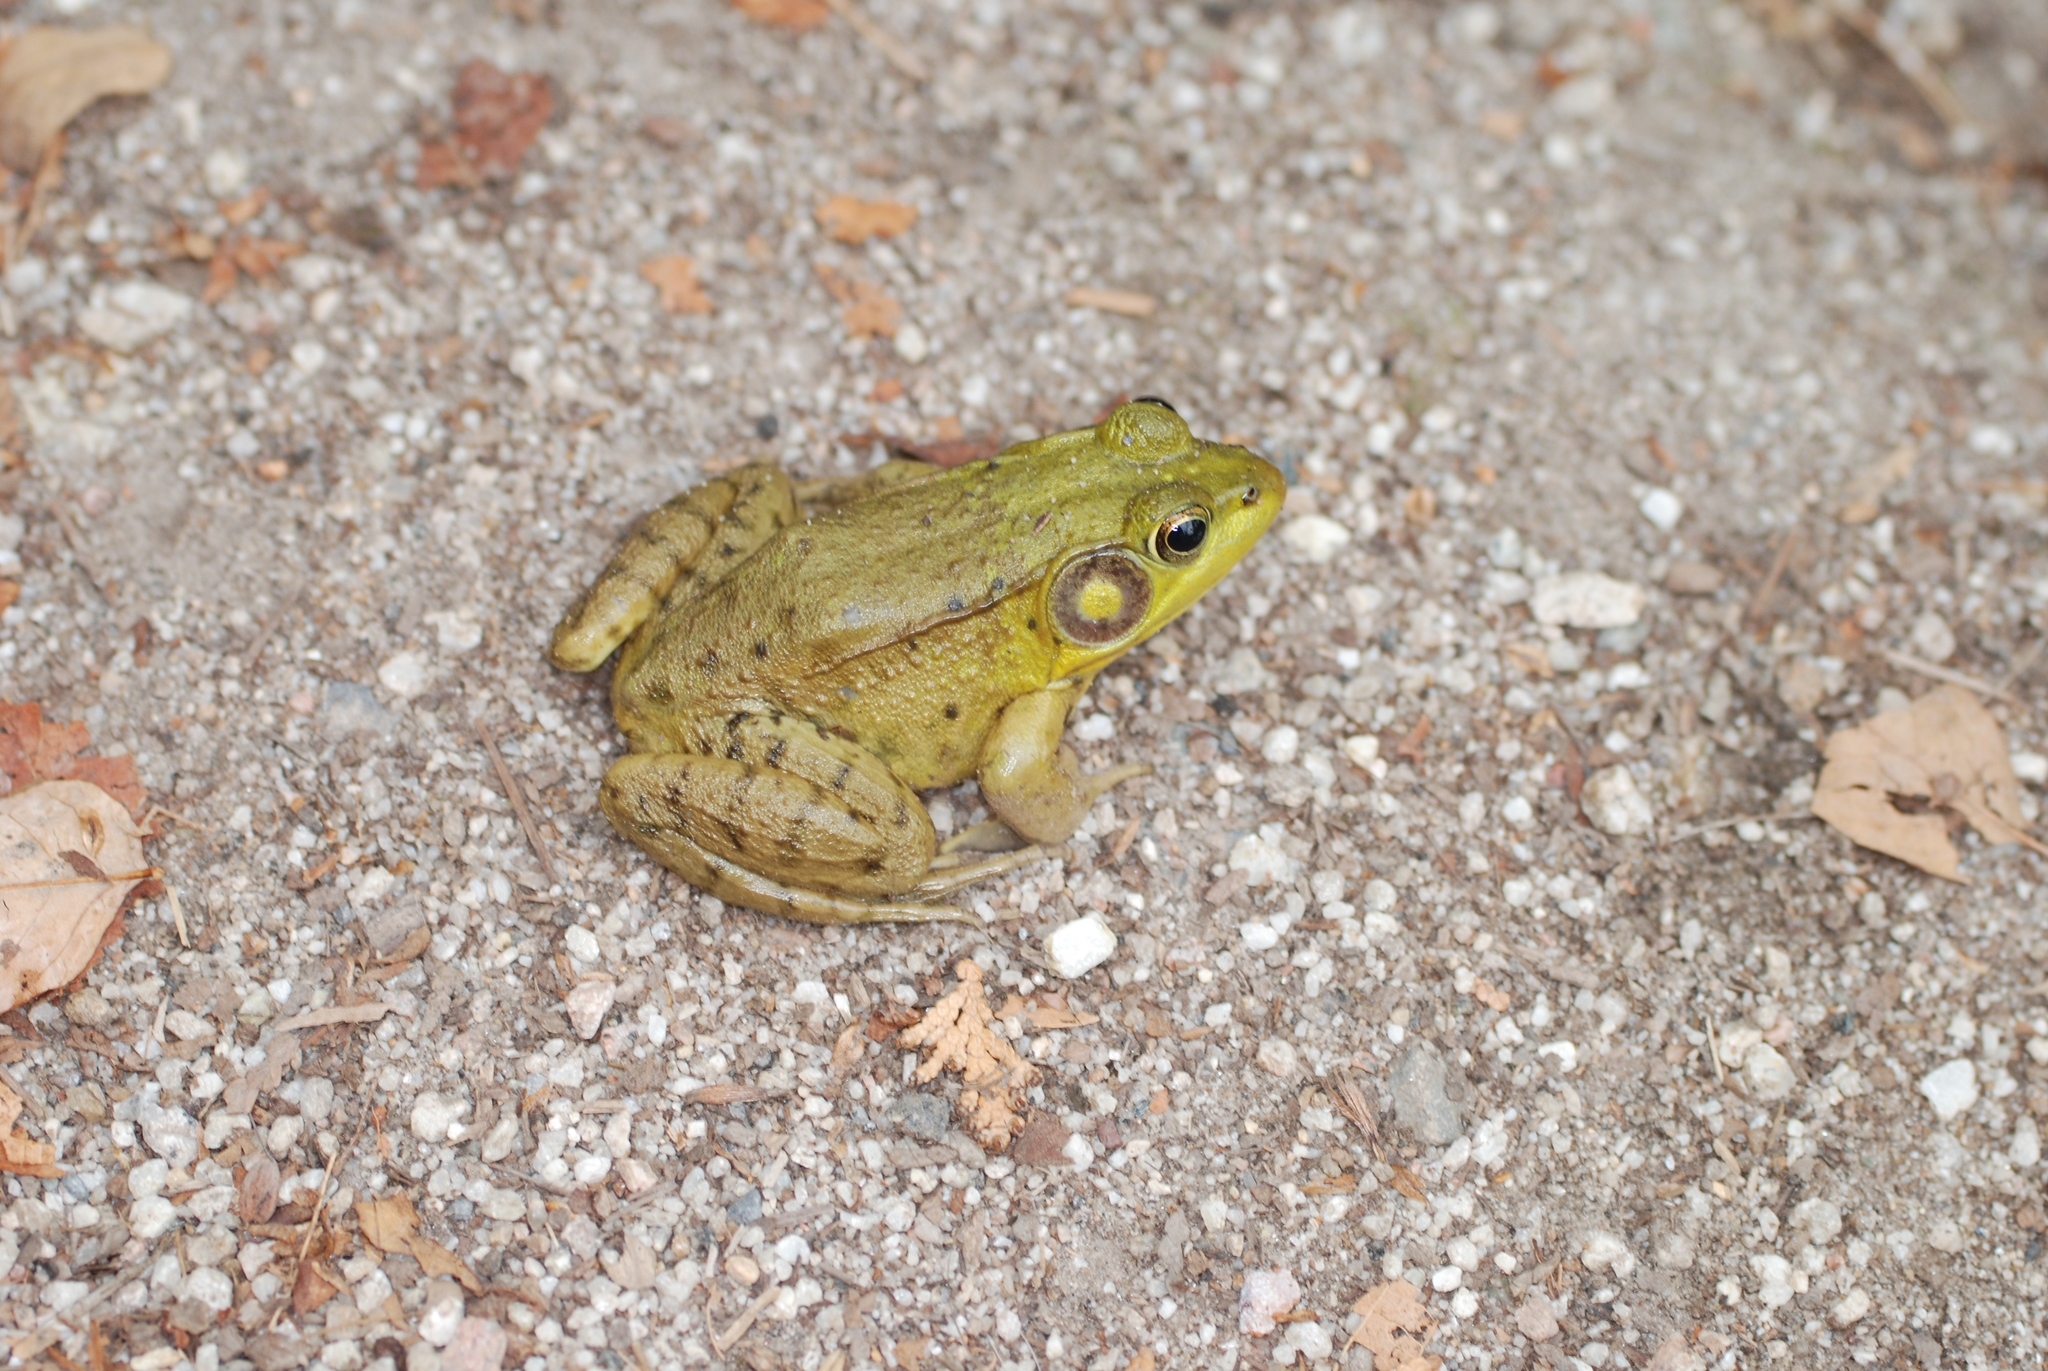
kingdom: Animalia
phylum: Chordata
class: Amphibia
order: Anura
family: Ranidae
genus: Lithobates
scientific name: Lithobates clamitans
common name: Green frog
